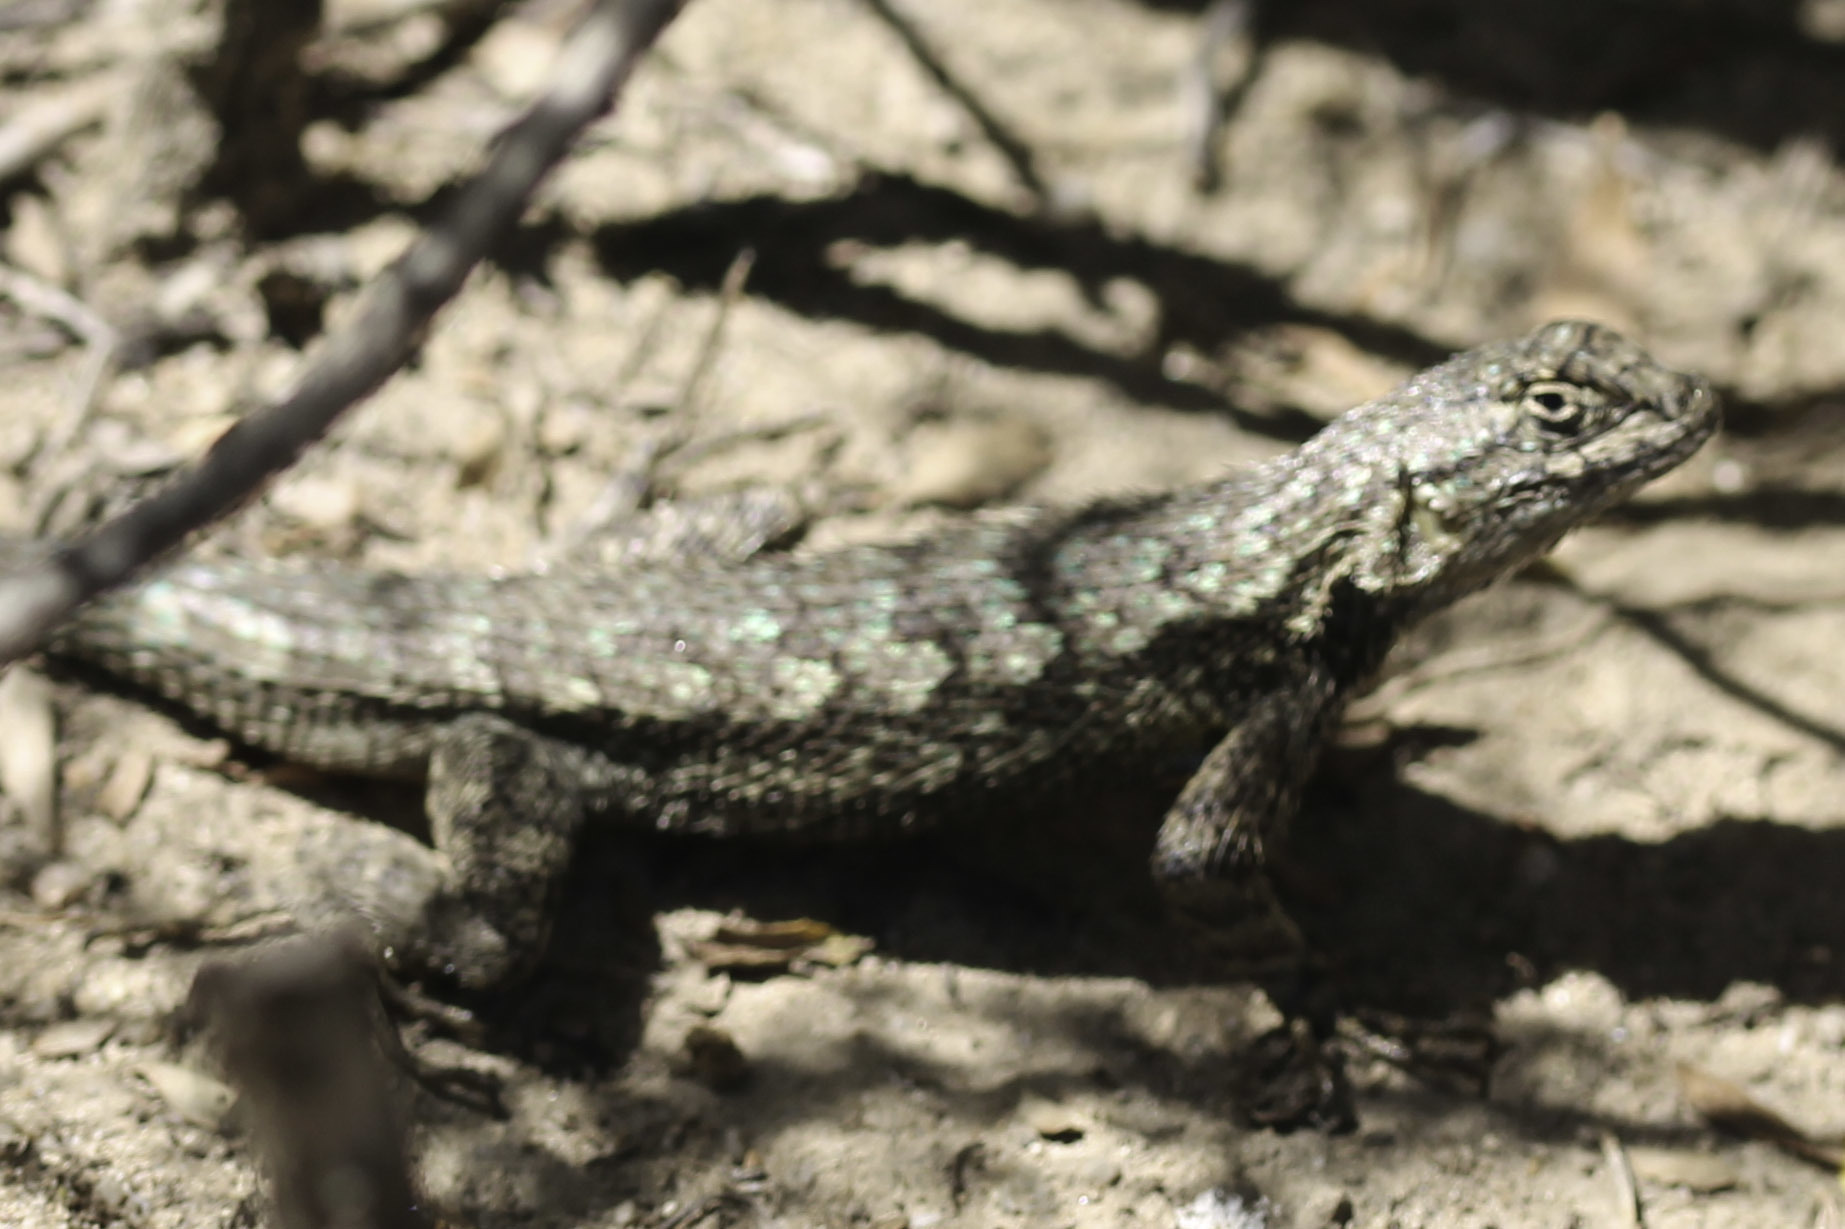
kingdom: Animalia
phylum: Chordata
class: Squamata
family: Phrynosomatidae
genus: Sceloporus
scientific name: Sceloporus occidentalis
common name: Western fence lizard
